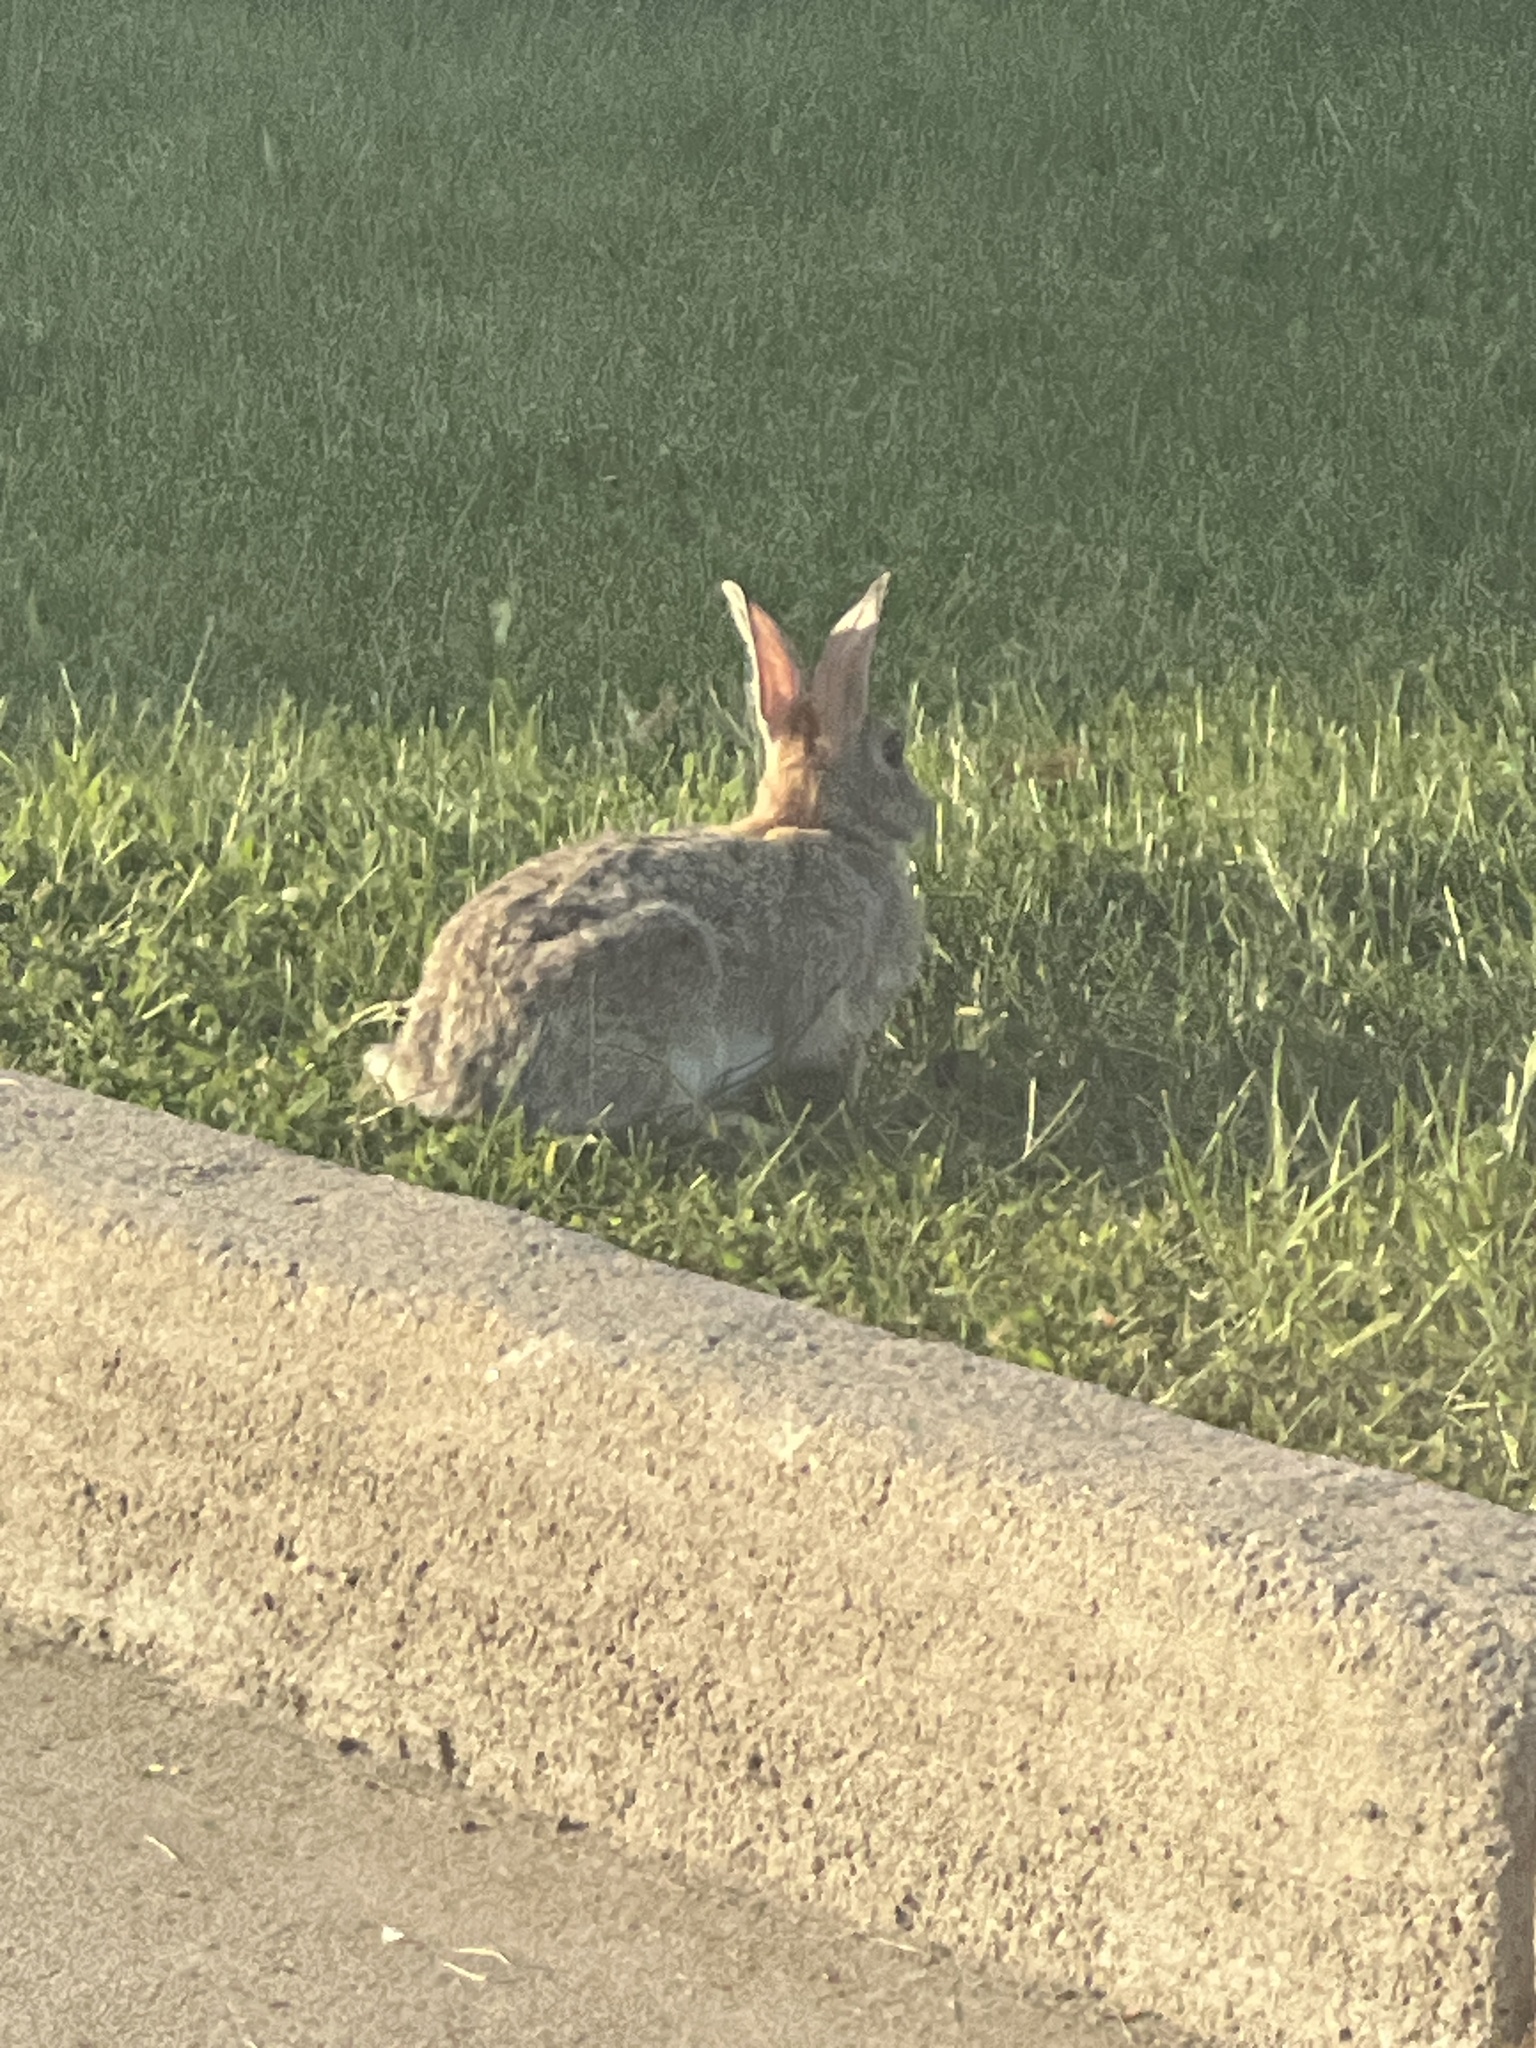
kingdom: Animalia
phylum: Chordata
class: Mammalia
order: Lagomorpha
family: Leporidae
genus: Sylvilagus
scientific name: Sylvilagus nuttallii
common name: Mountain cottontail
